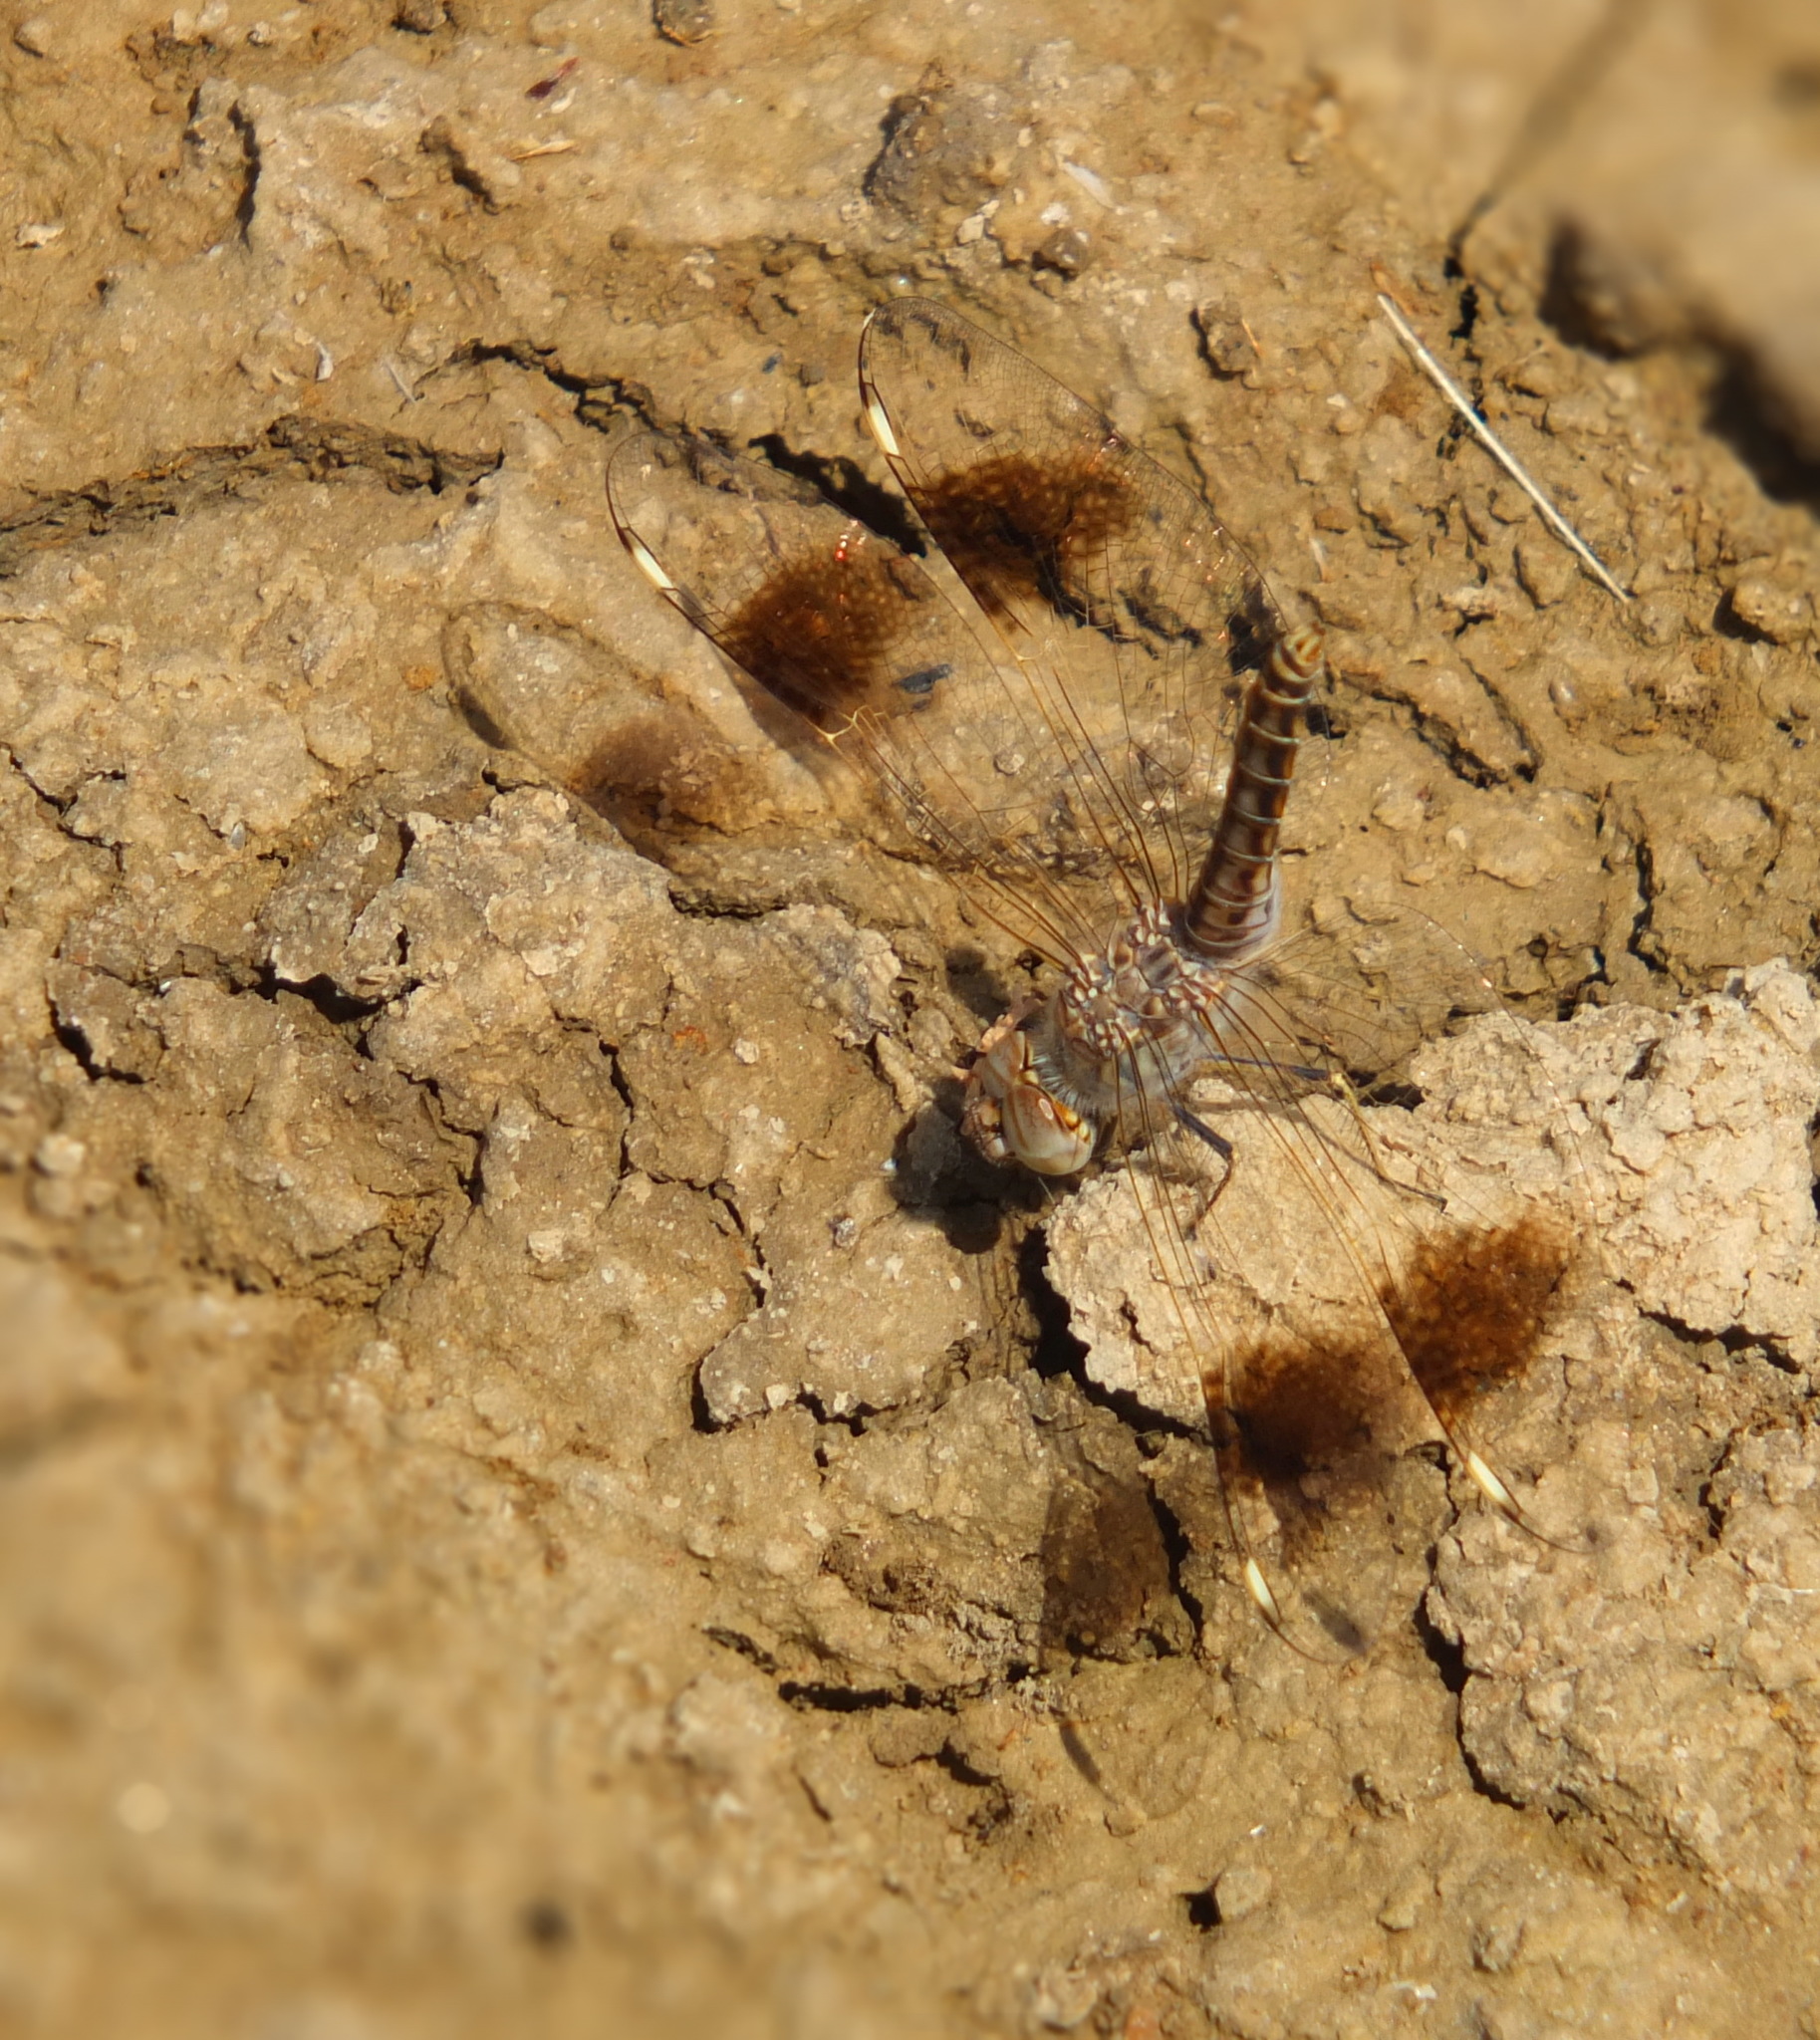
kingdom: Animalia
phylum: Arthropoda
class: Insecta
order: Odonata
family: Libellulidae
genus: Brachythemis
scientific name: Brachythemis impartita
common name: Banded groundling
